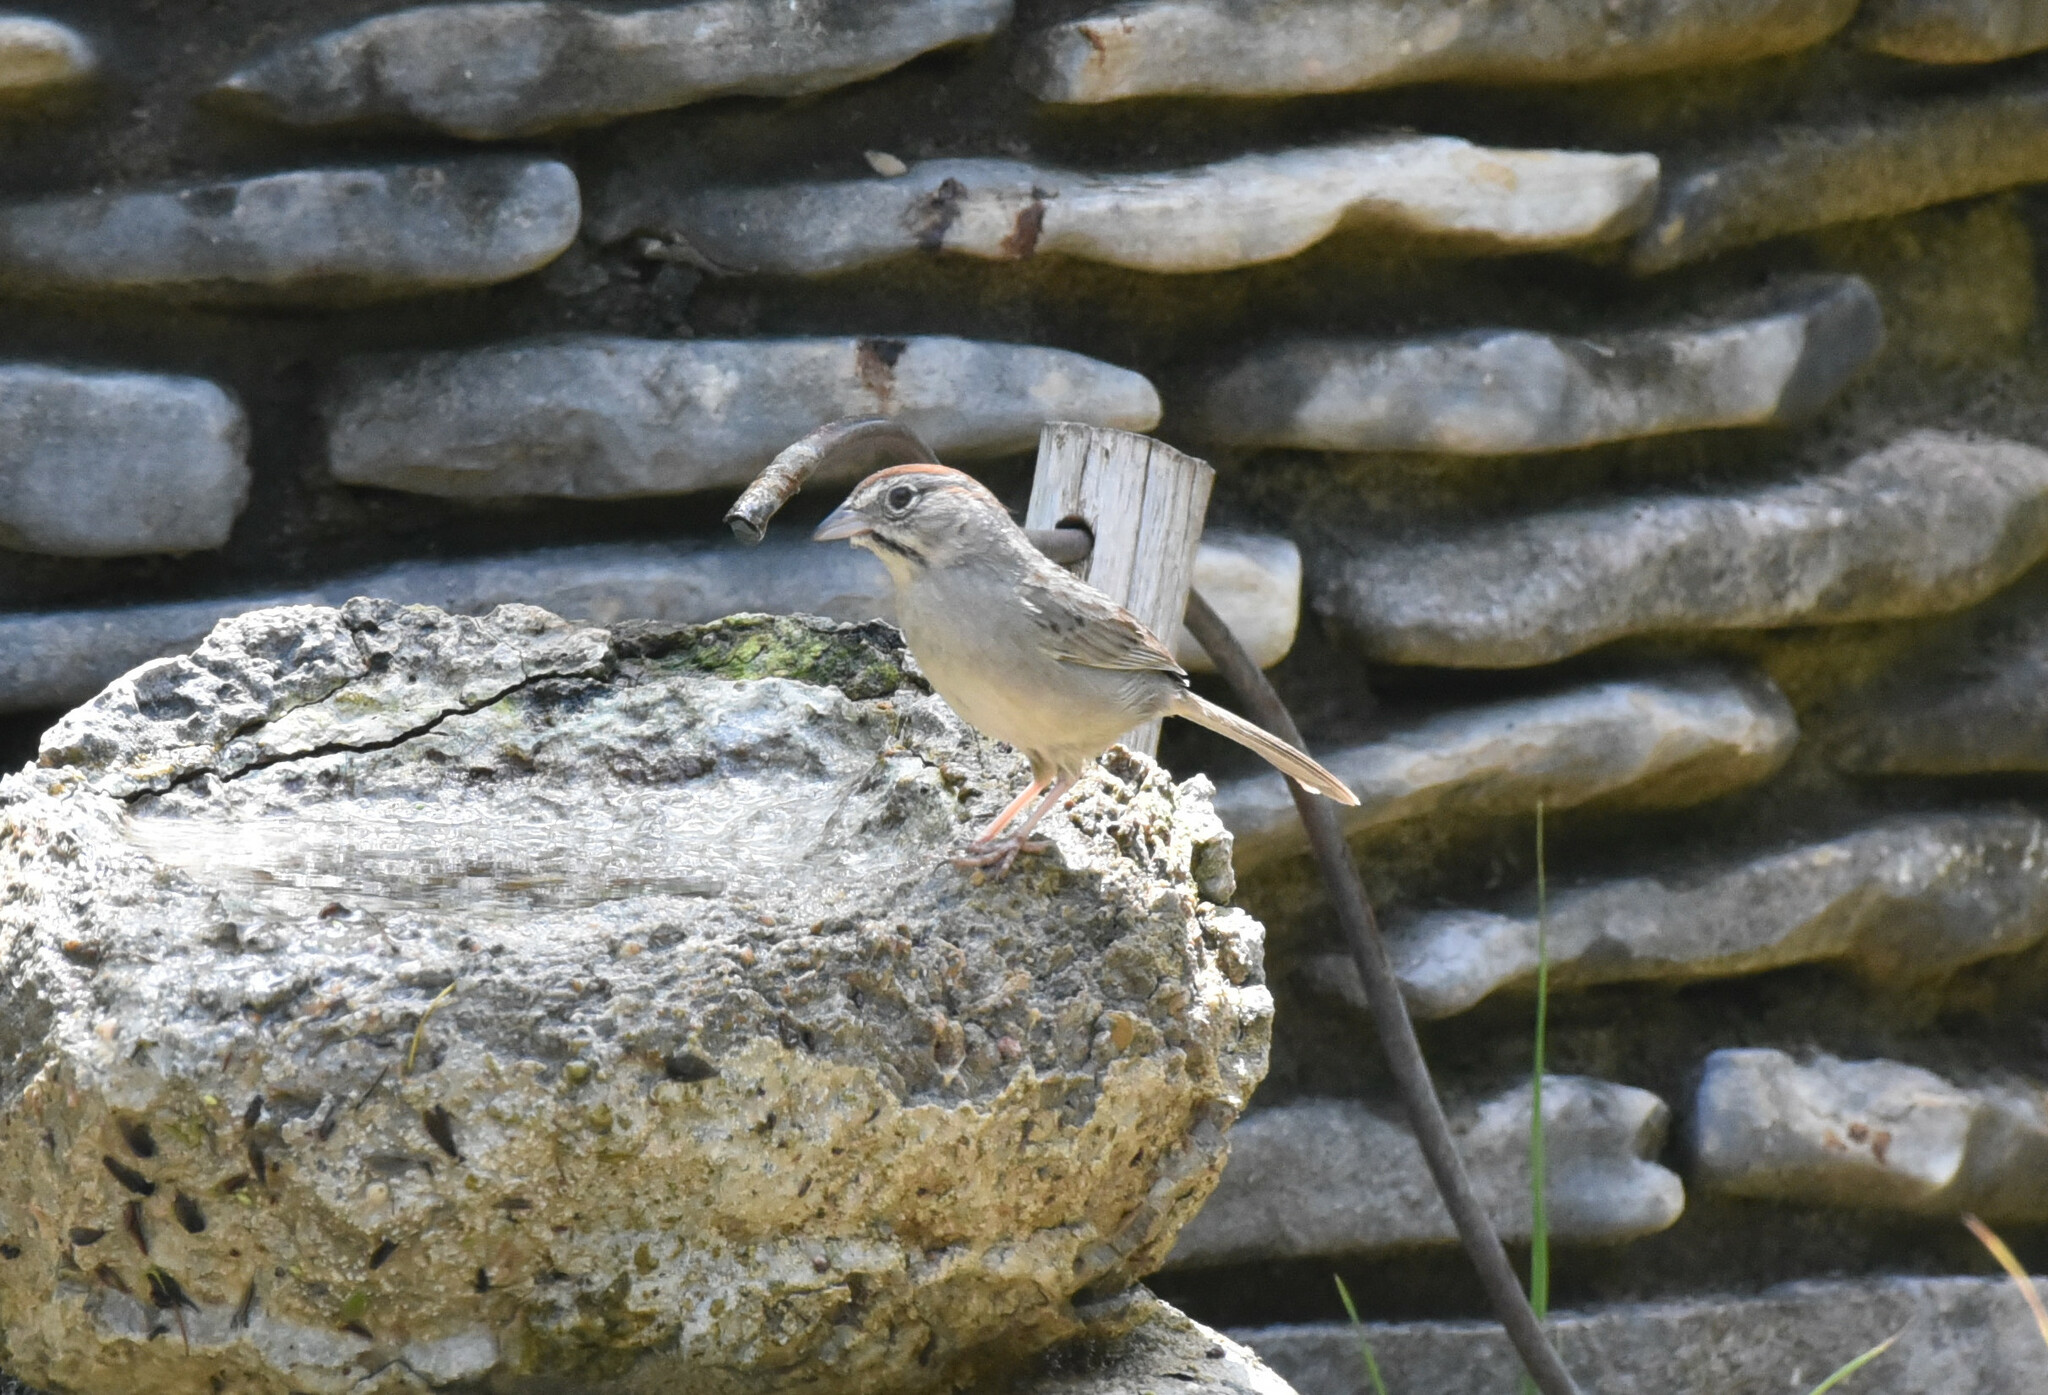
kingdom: Animalia
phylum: Chordata
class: Aves
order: Passeriformes
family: Passerellidae
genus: Aimophila
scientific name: Aimophila ruficeps
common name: Rufous-crowned sparrow
